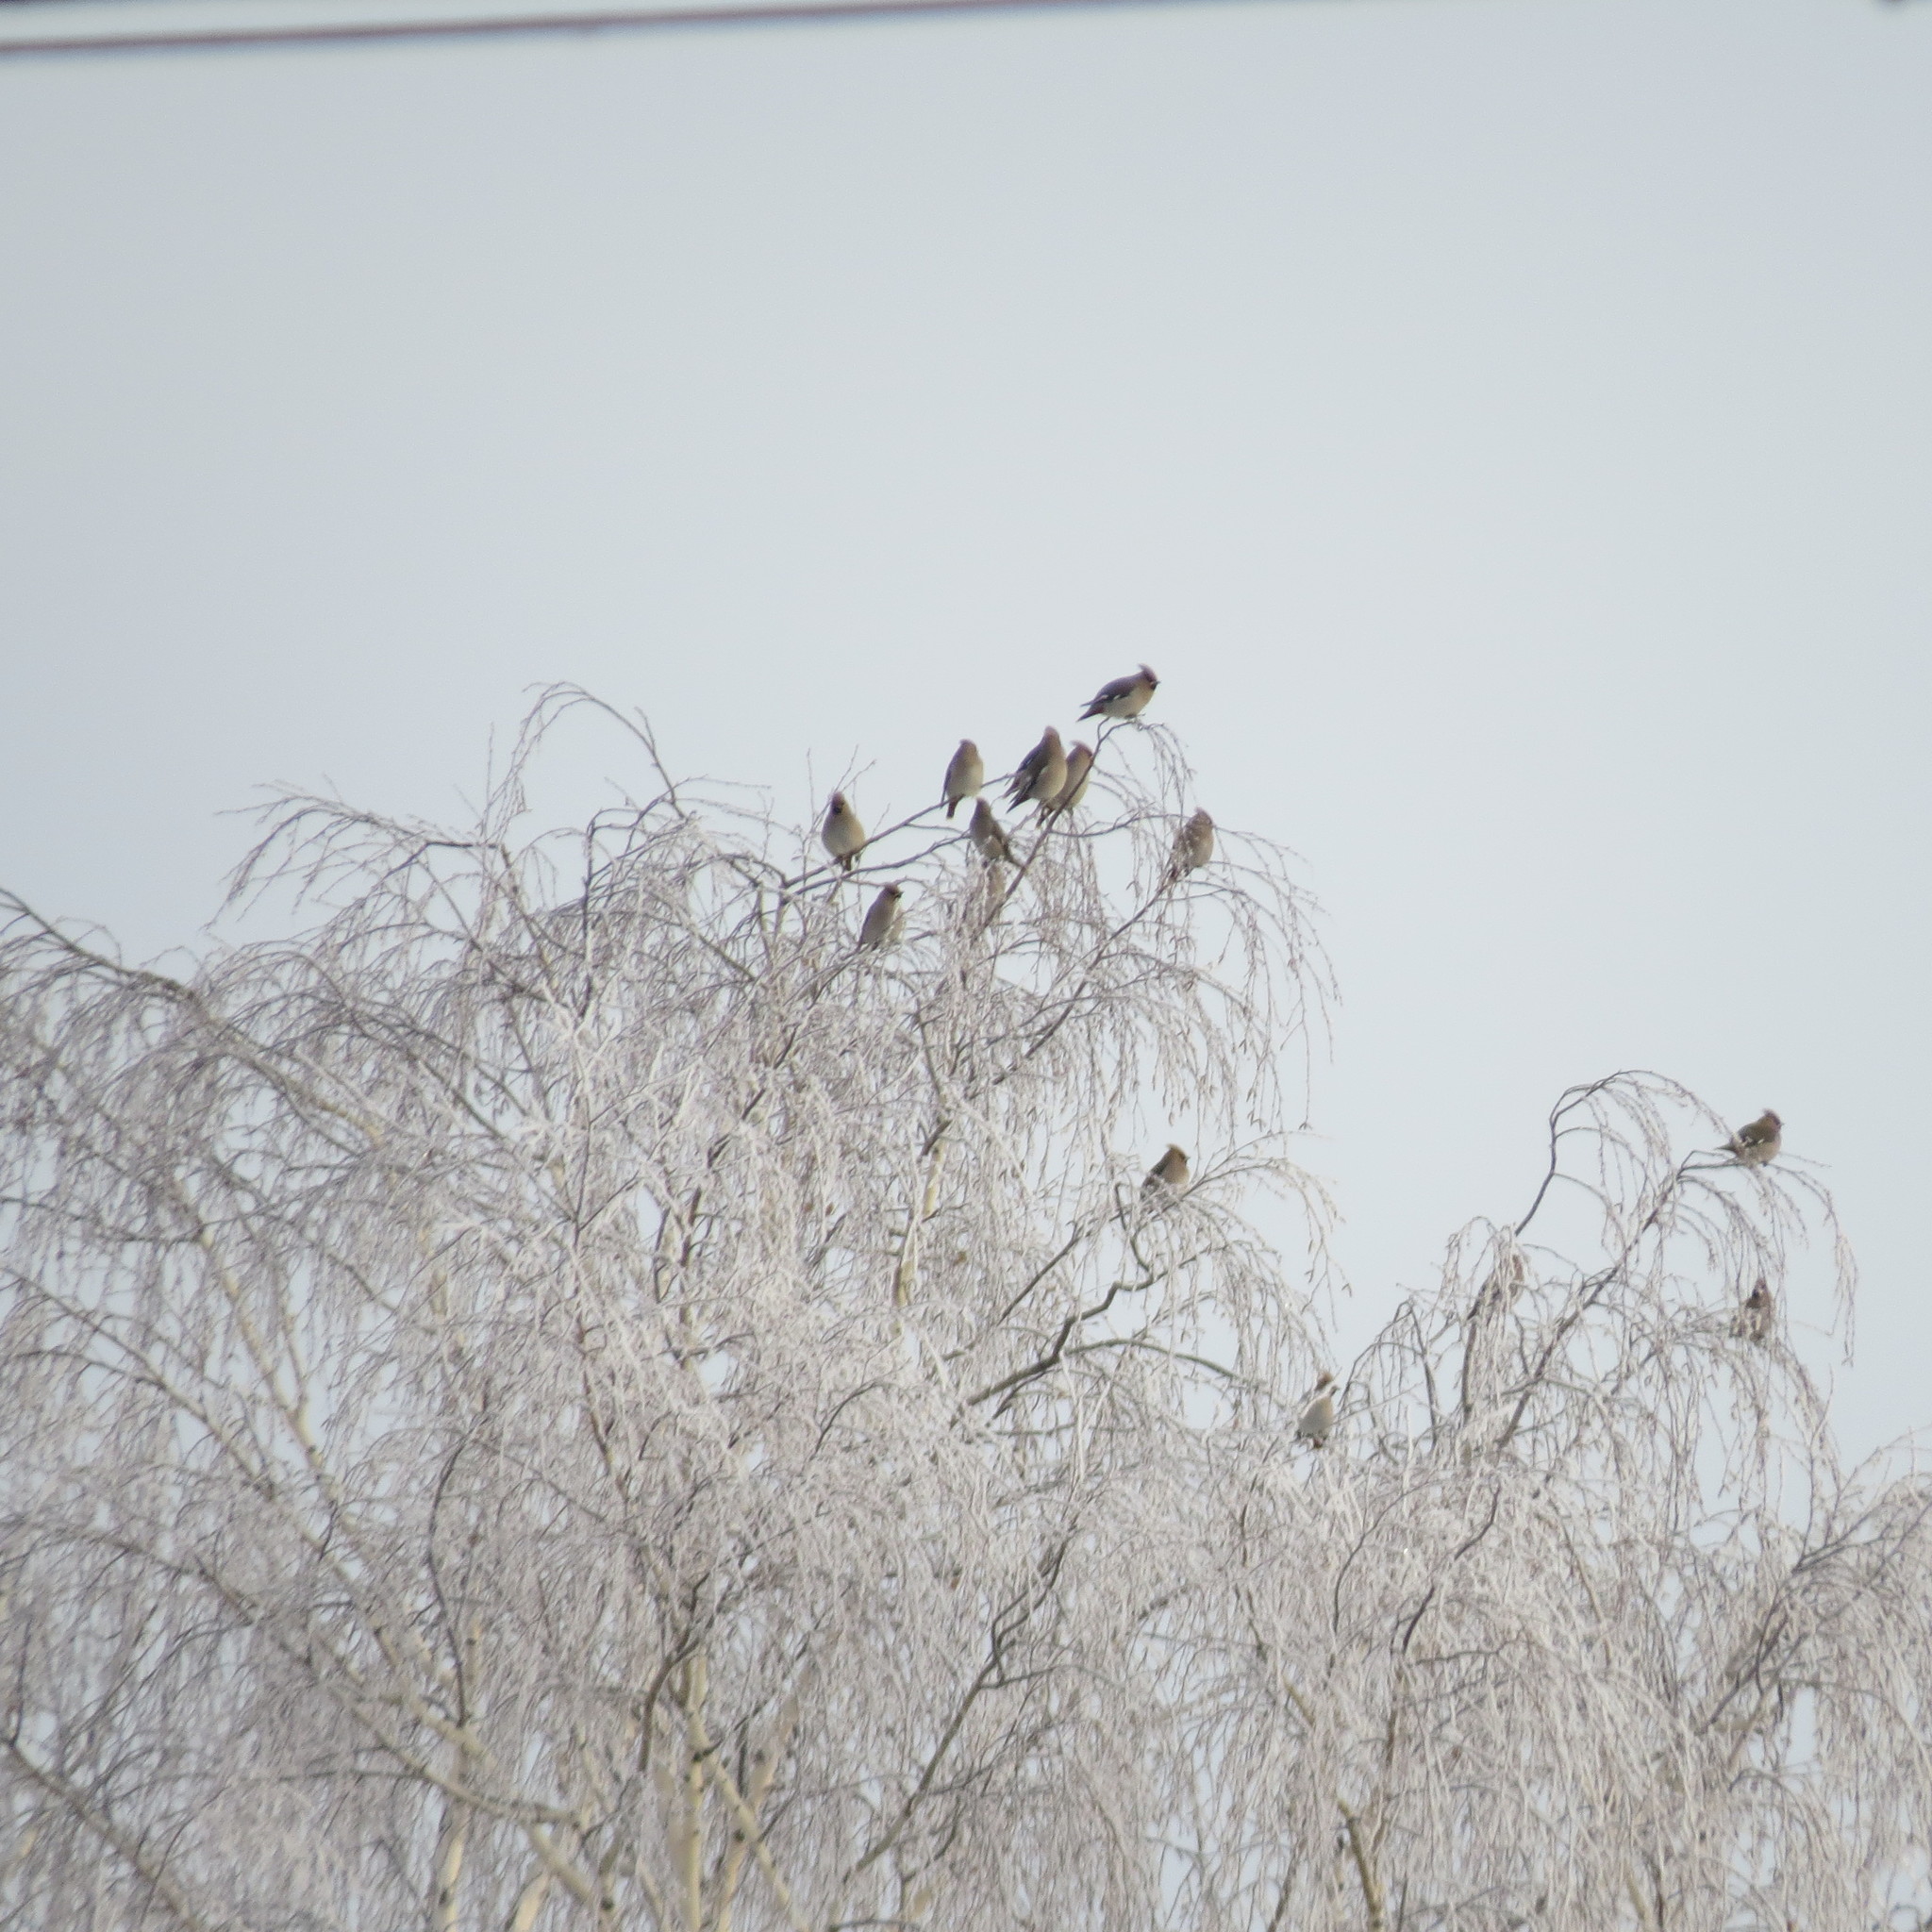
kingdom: Animalia
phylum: Chordata
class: Aves
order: Passeriformes
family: Bombycillidae
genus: Bombycilla
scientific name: Bombycilla garrulus
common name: Bohemian waxwing
